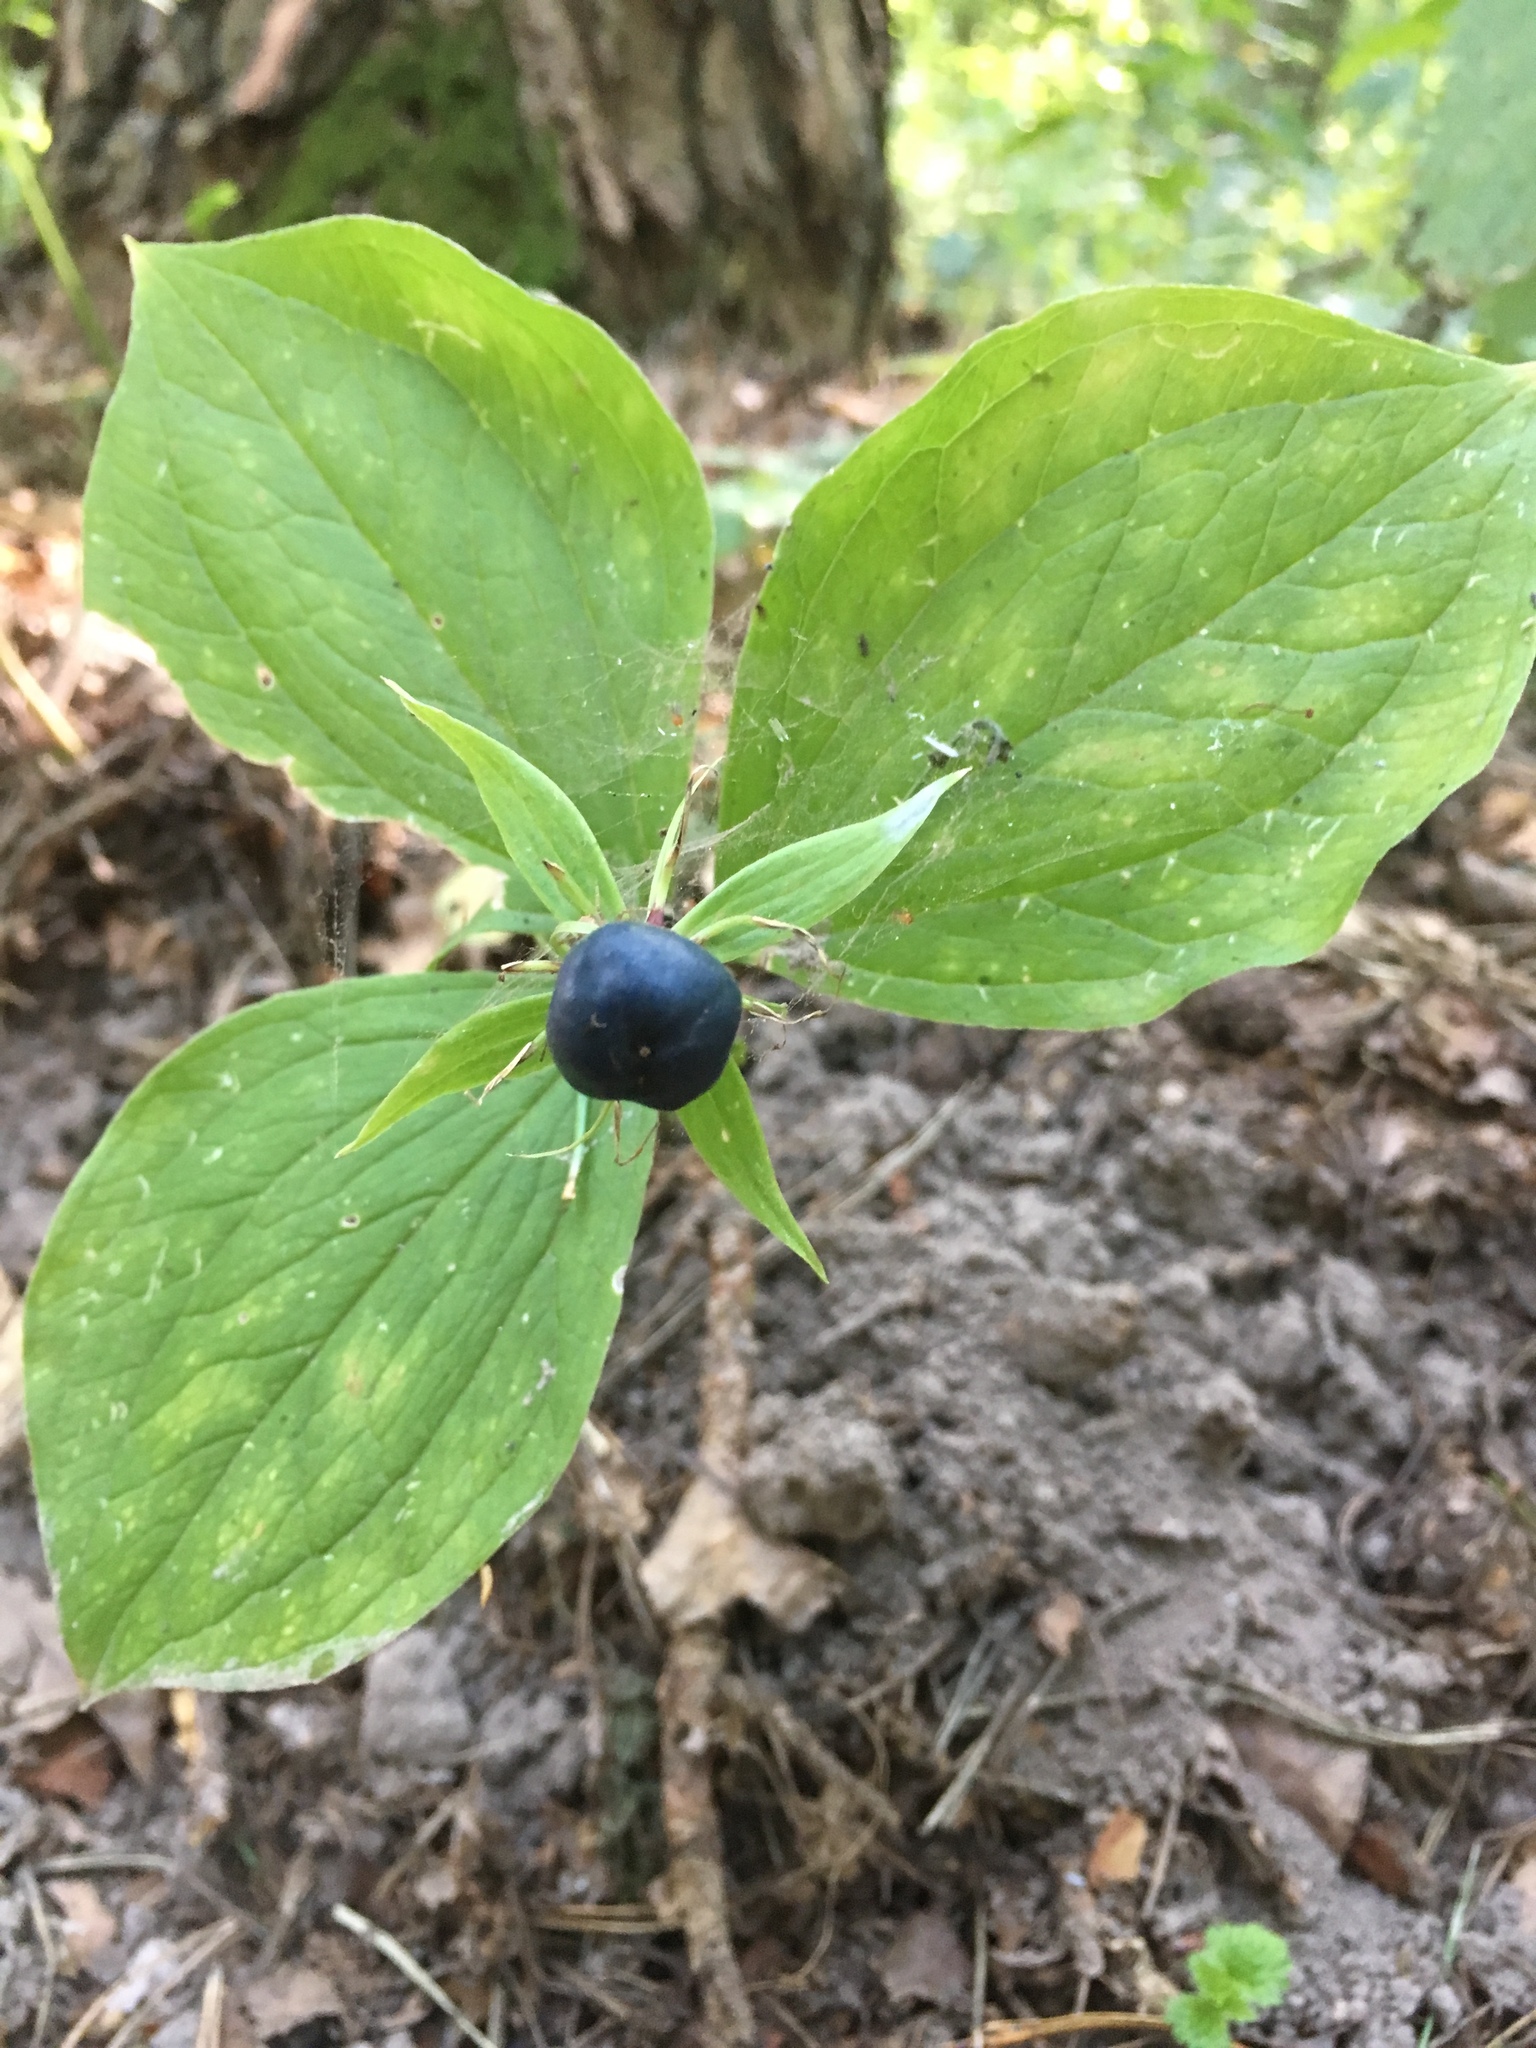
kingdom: Plantae
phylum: Tracheophyta
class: Liliopsida
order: Liliales
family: Melanthiaceae
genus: Paris
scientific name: Paris quadrifolia
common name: Herb-paris
